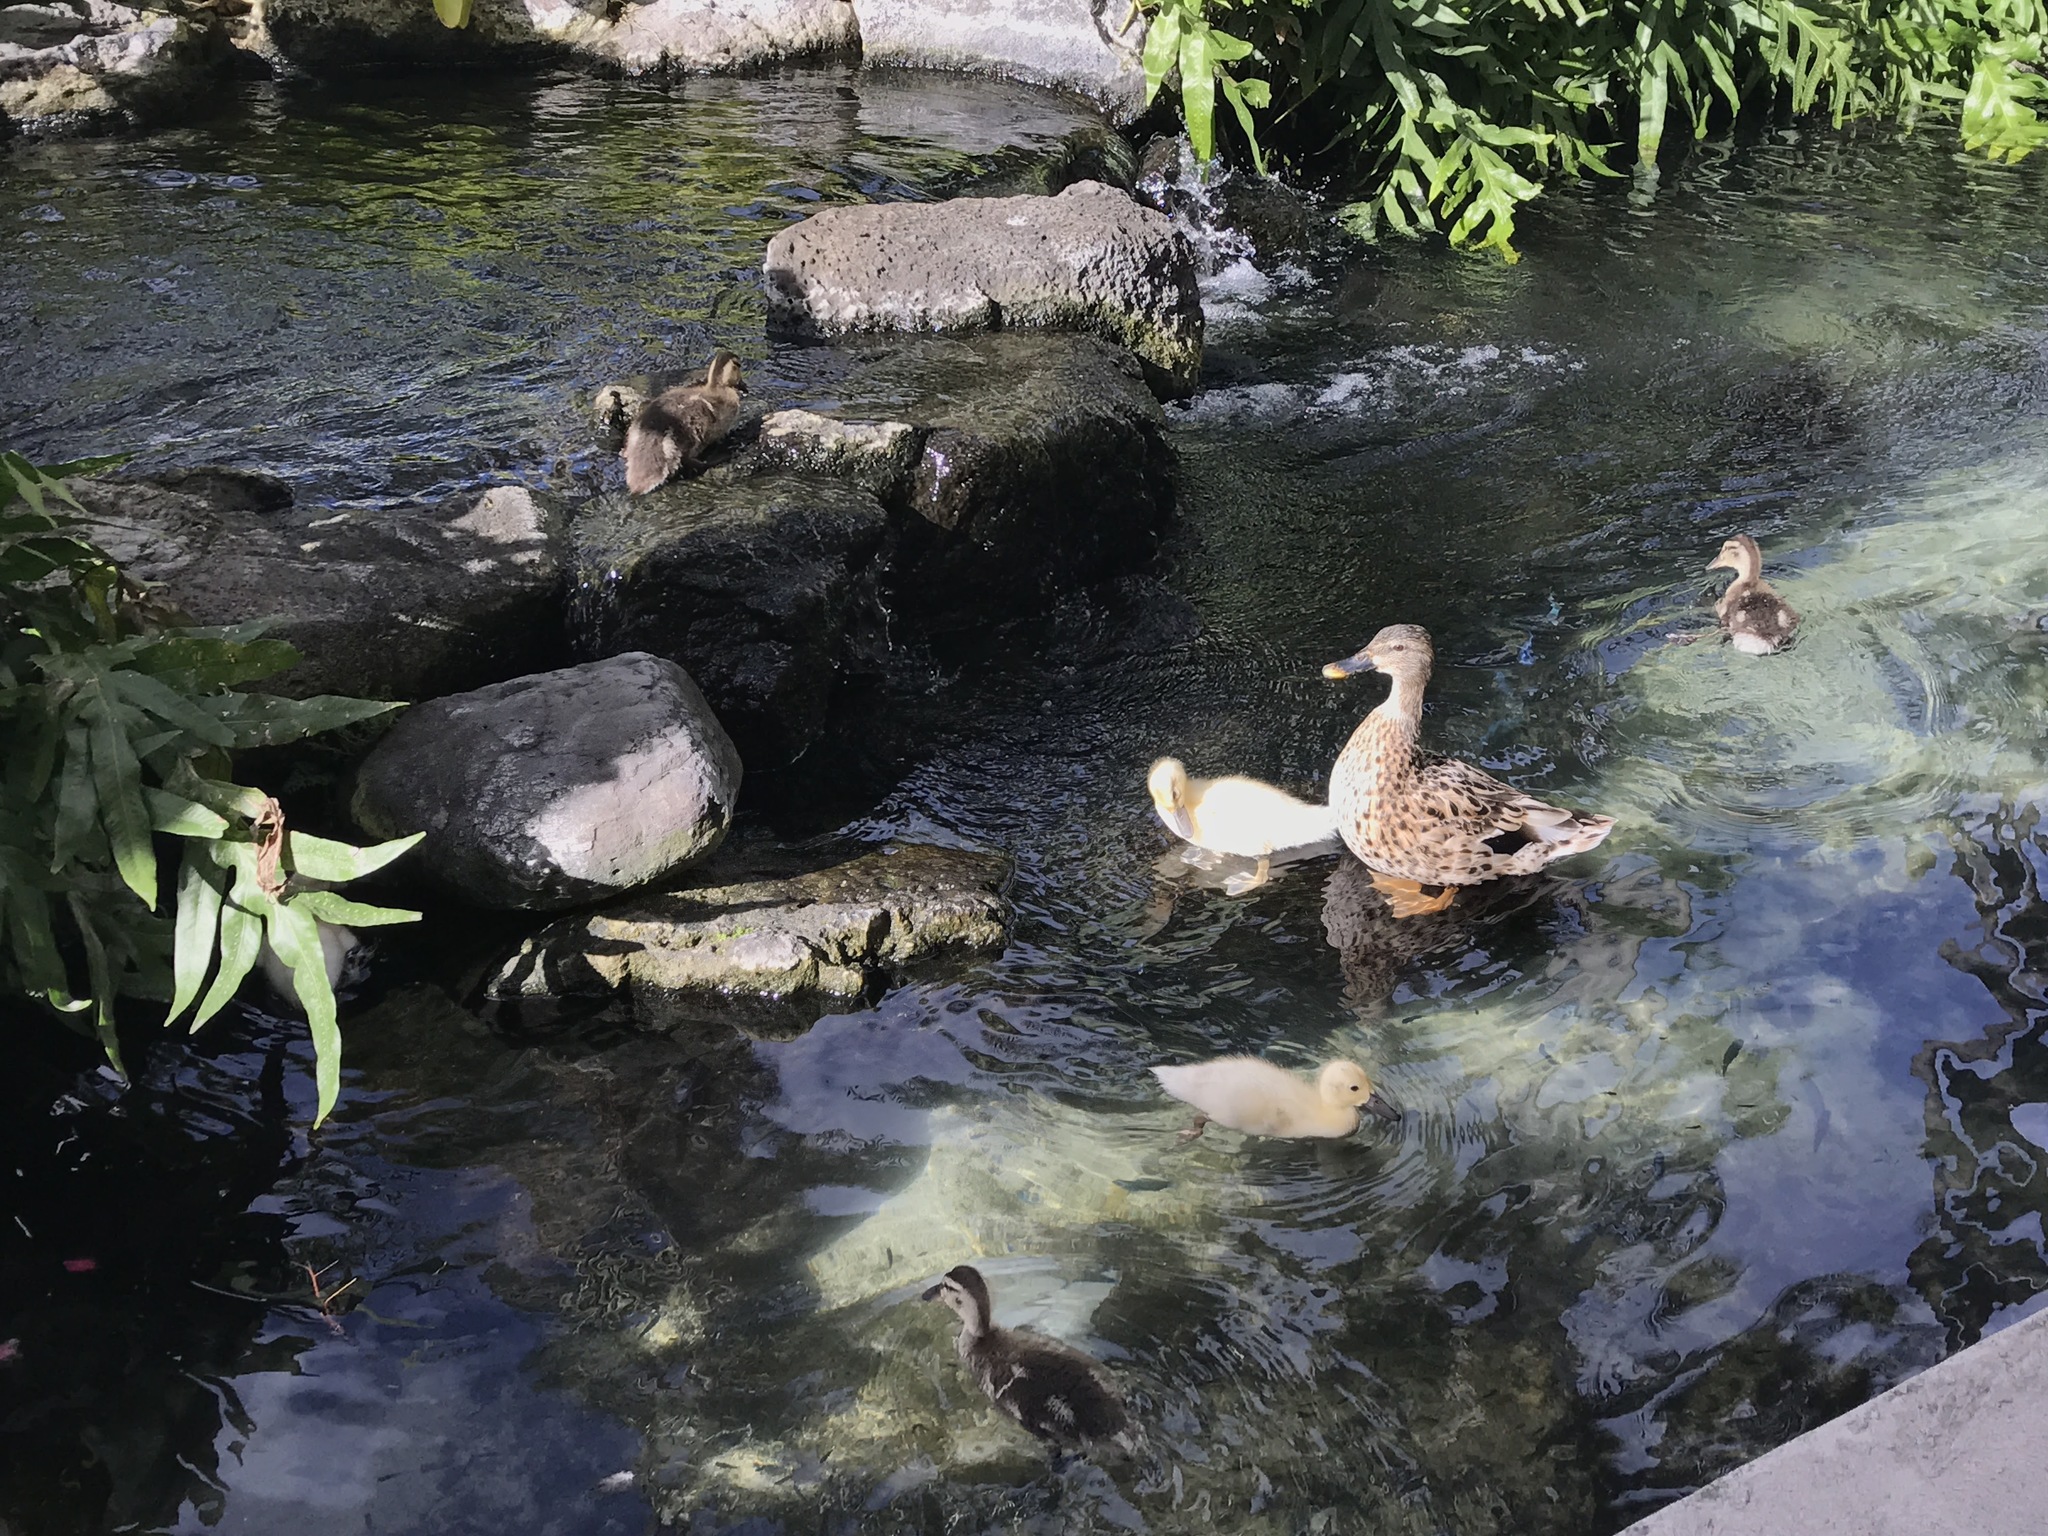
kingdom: Animalia
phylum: Chordata
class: Aves
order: Anseriformes
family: Anatidae
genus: Anas
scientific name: Anas
